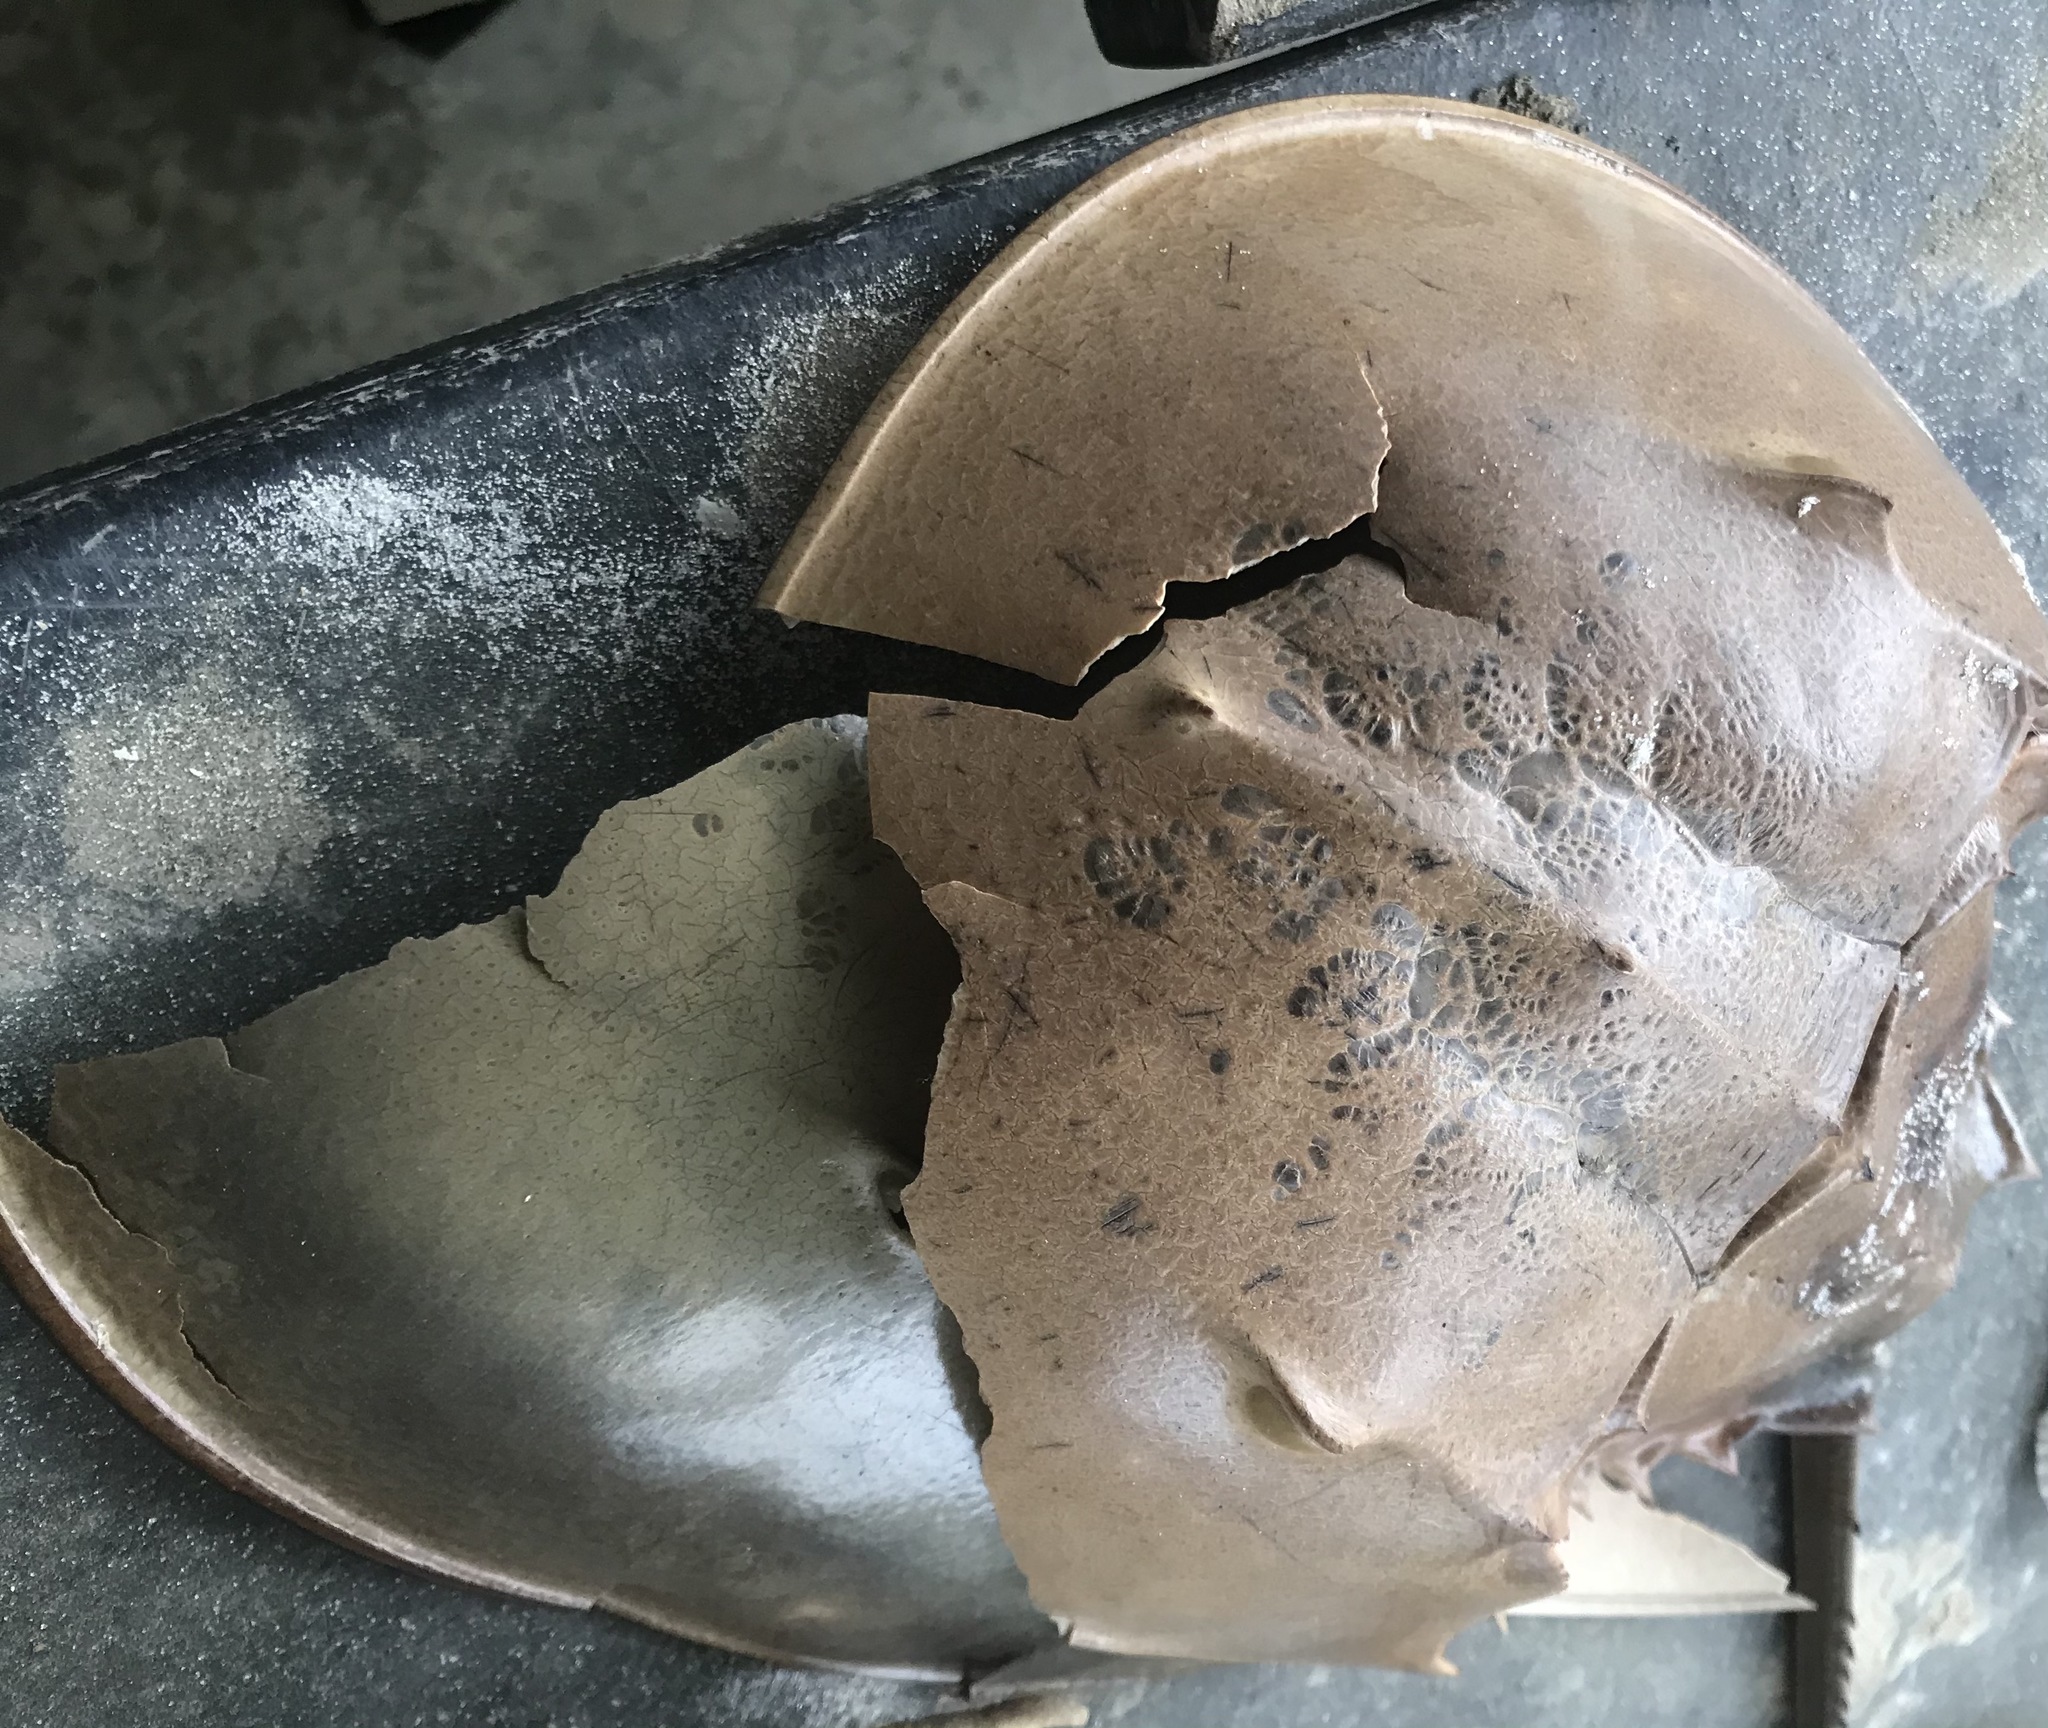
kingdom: Animalia
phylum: Arthropoda
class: Merostomata
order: Xiphosurida
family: Limulidae
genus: Limulus
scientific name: Limulus polyphemus
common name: Horseshoe crab
